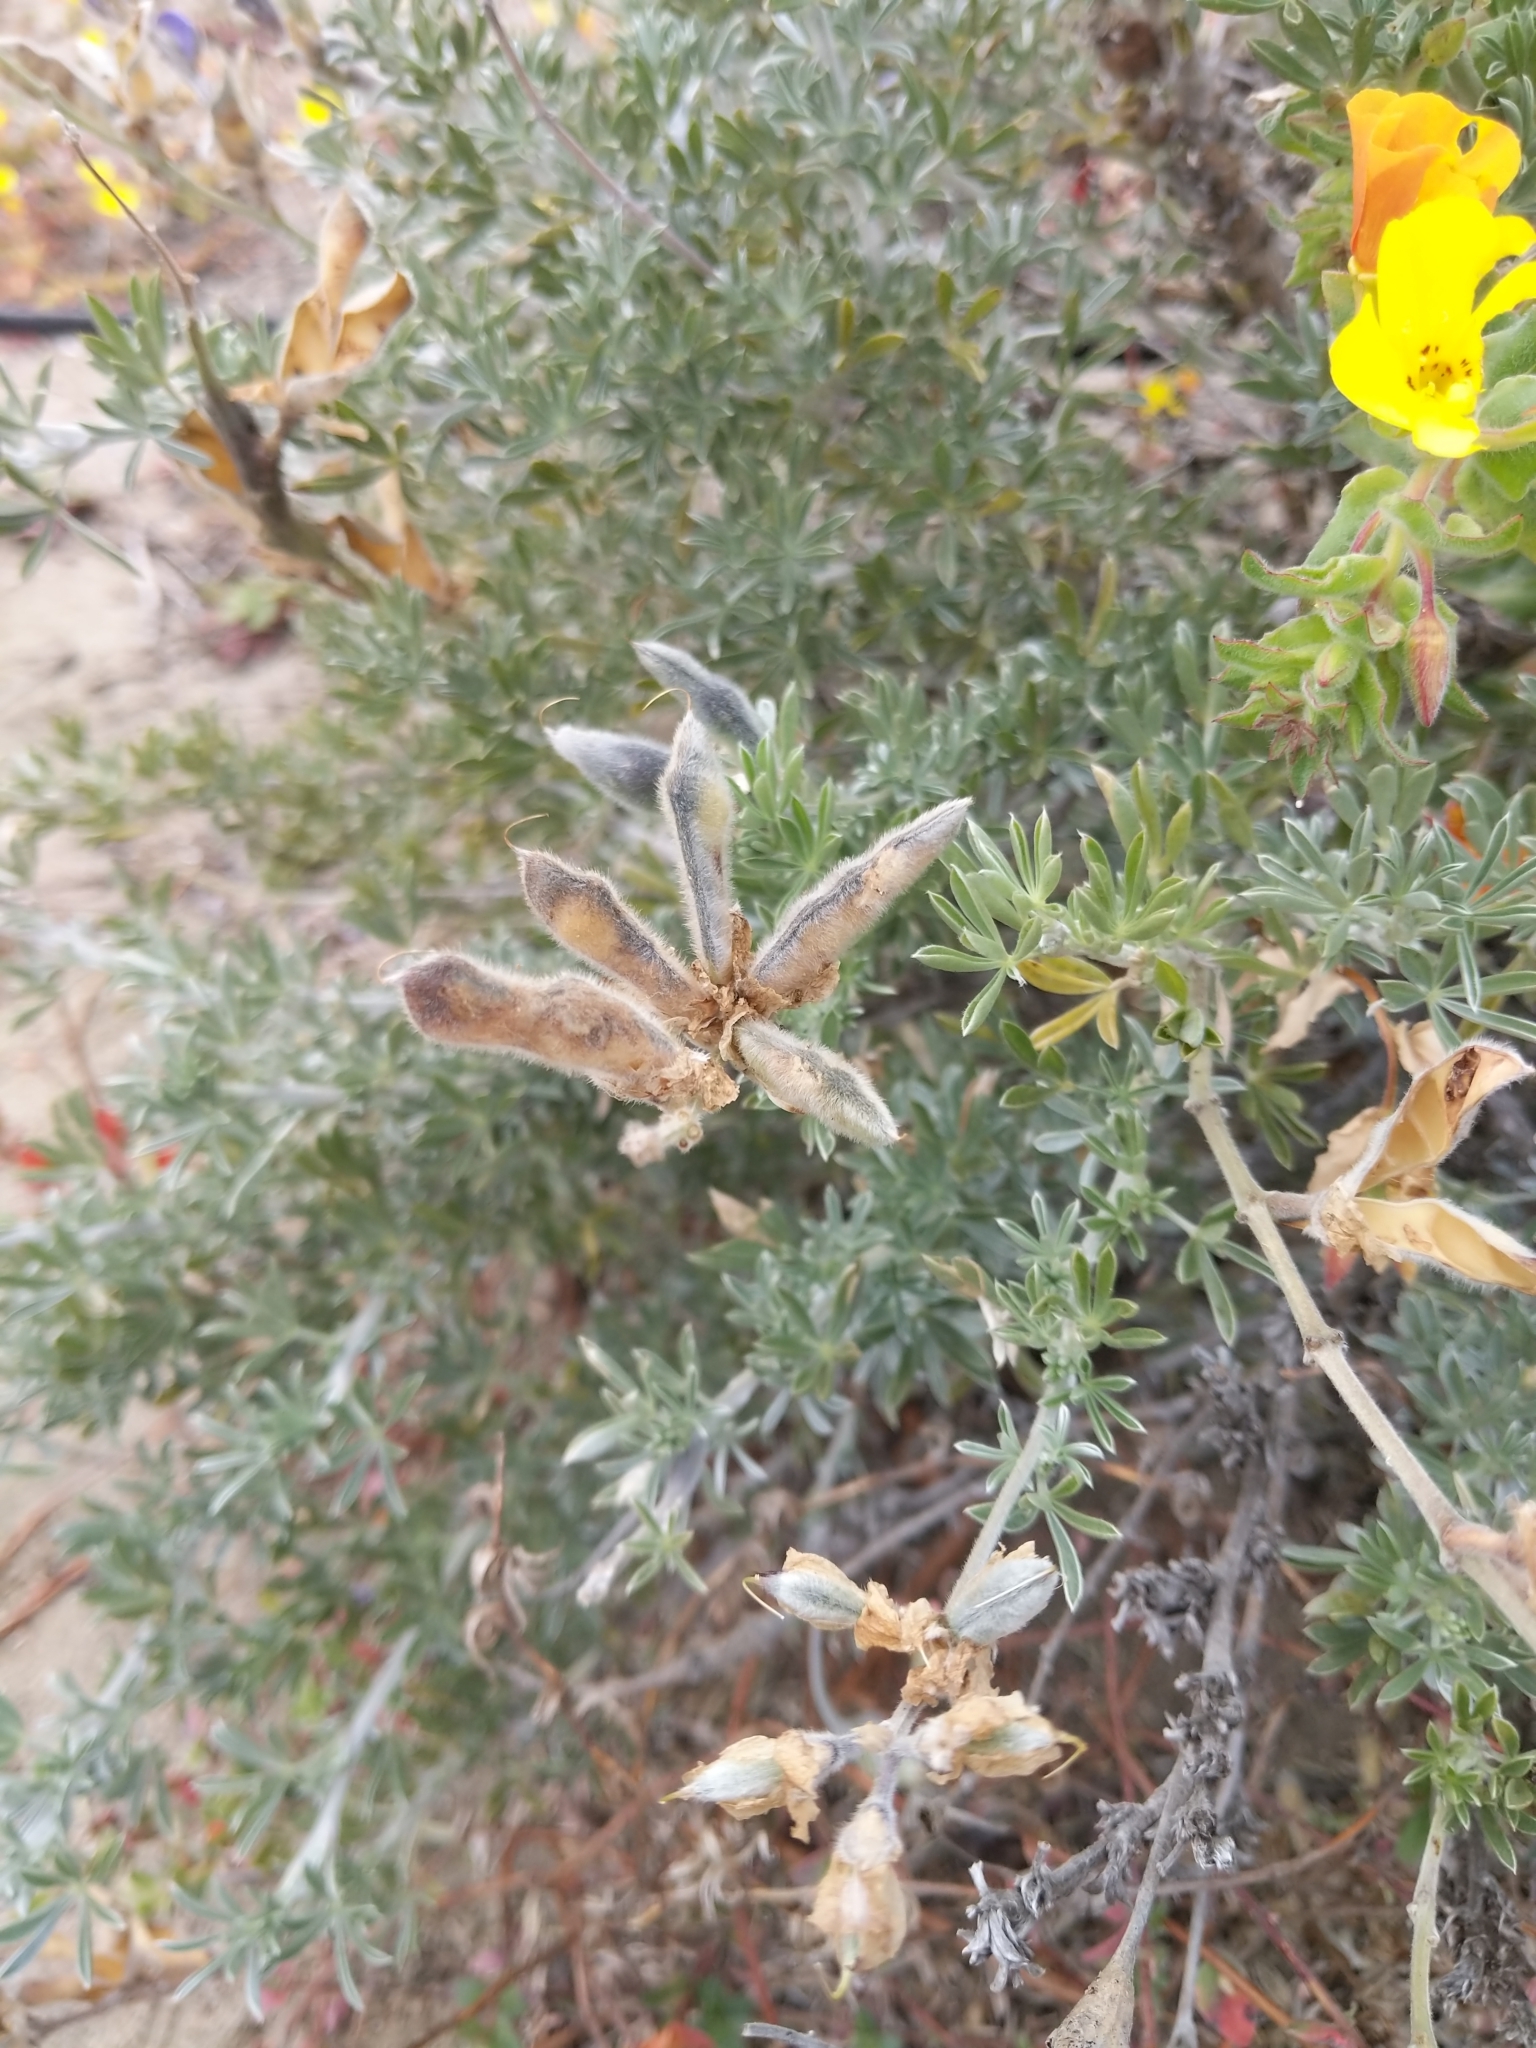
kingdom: Plantae
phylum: Tracheophyta
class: Magnoliopsida
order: Fabales
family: Fabaceae
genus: Lupinus
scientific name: Lupinus chamissonis
